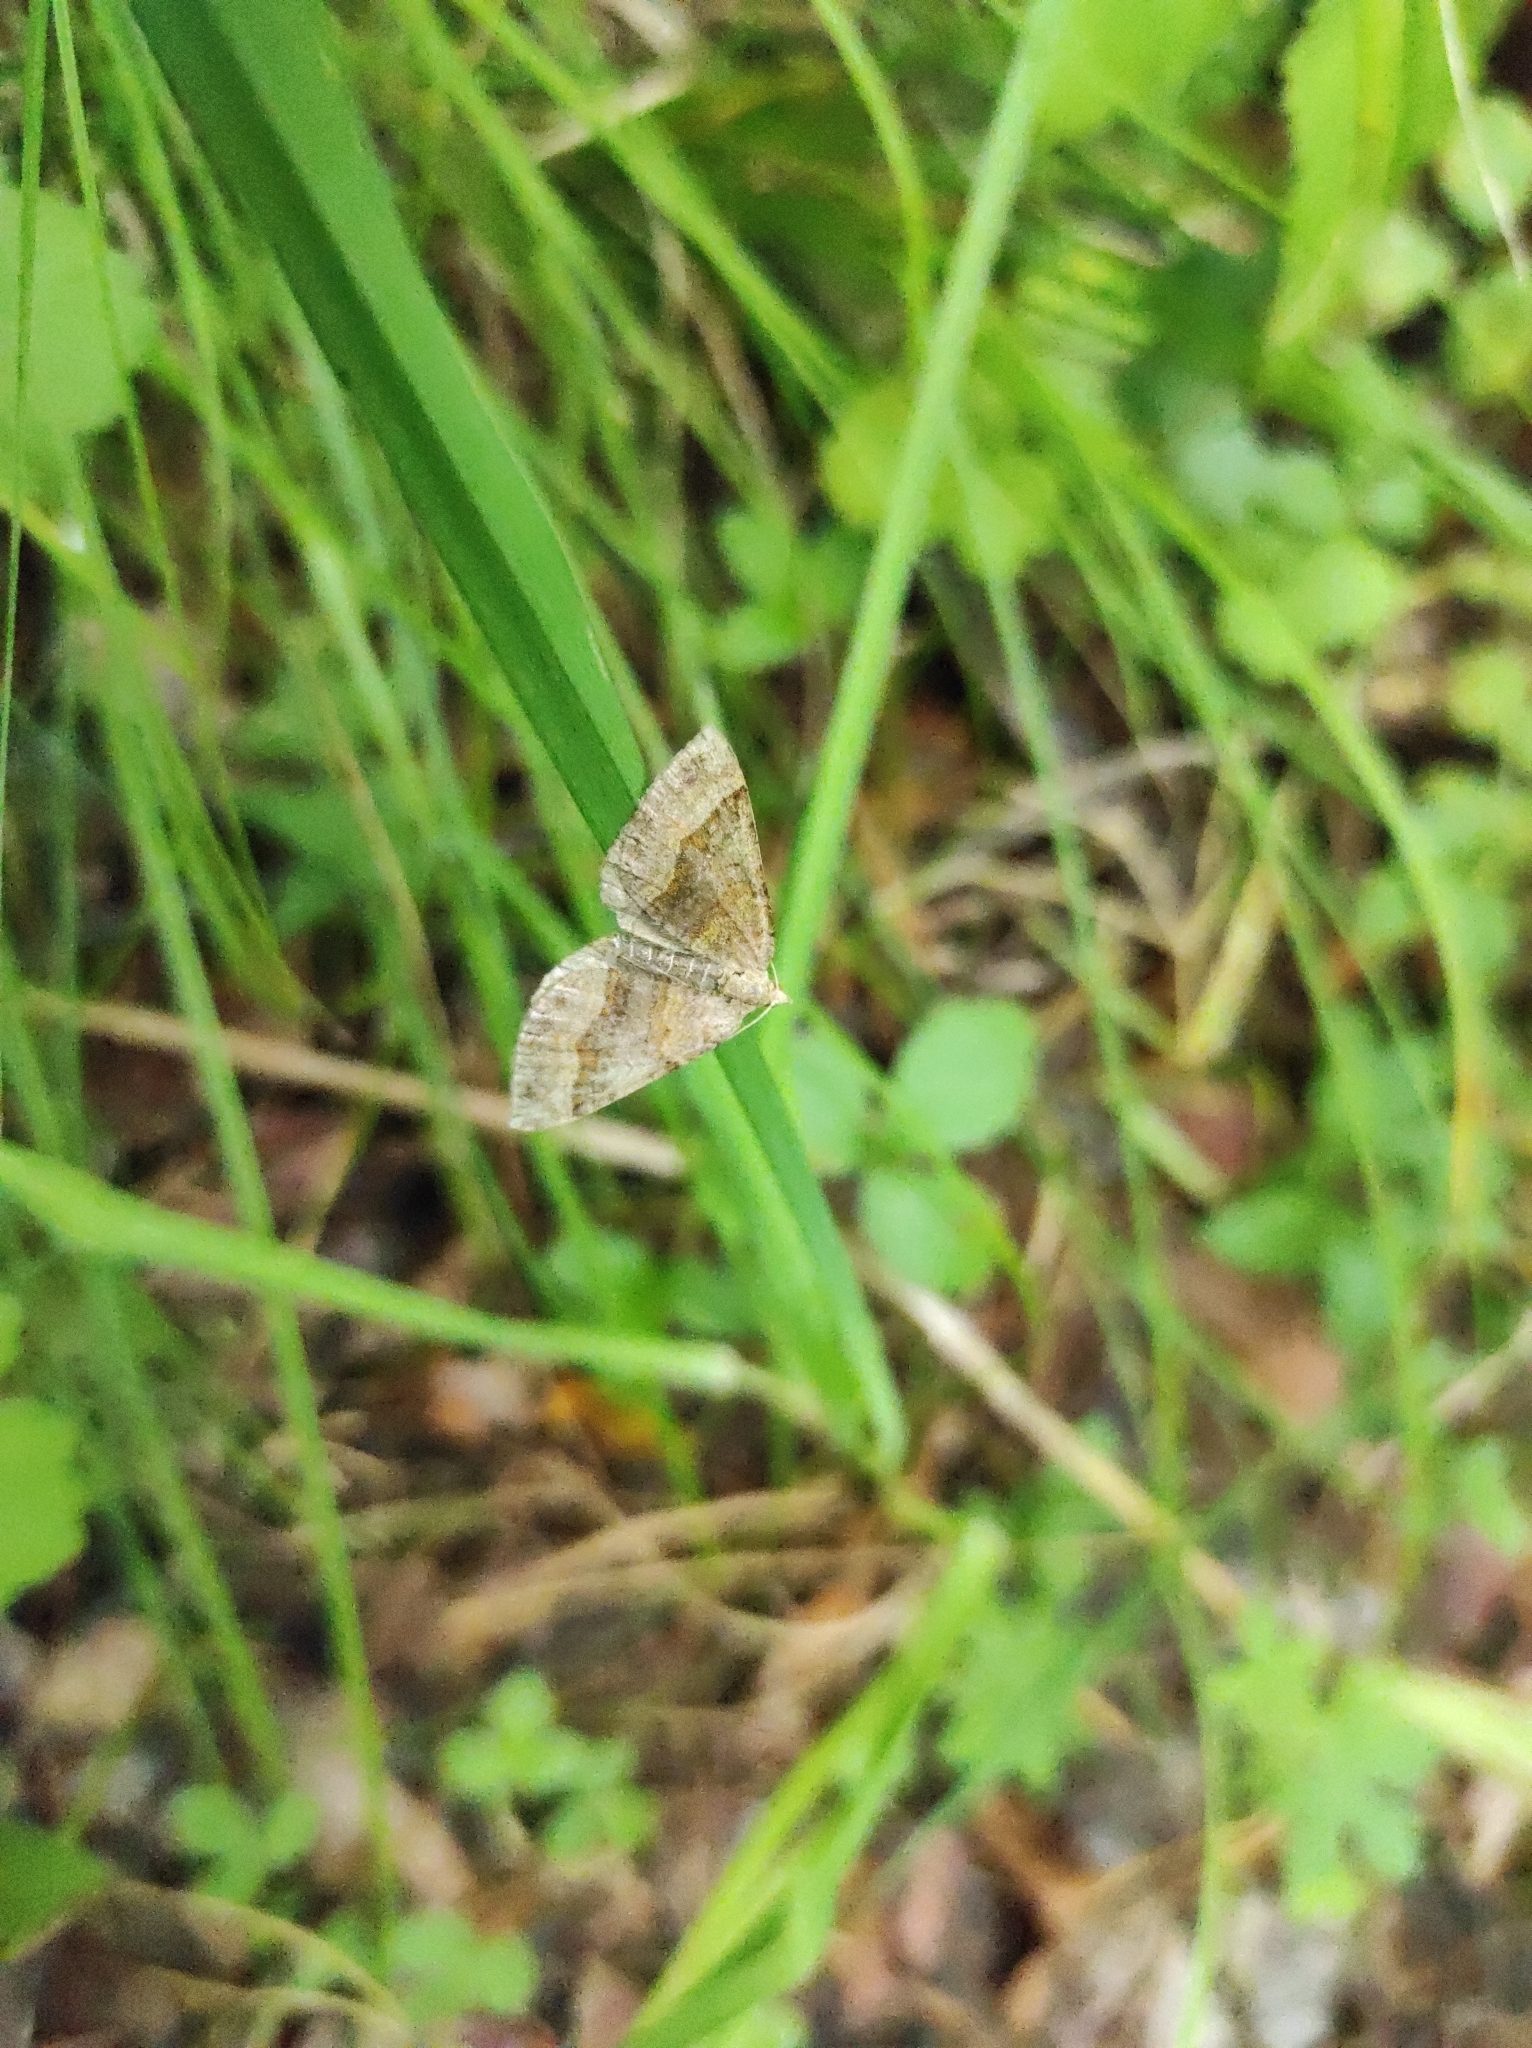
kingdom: Animalia
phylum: Arthropoda
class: Insecta
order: Lepidoptera
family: Geometridae
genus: Scotopteryx
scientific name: Scotopteryx chenopodiata
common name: Shaded broad-bar
